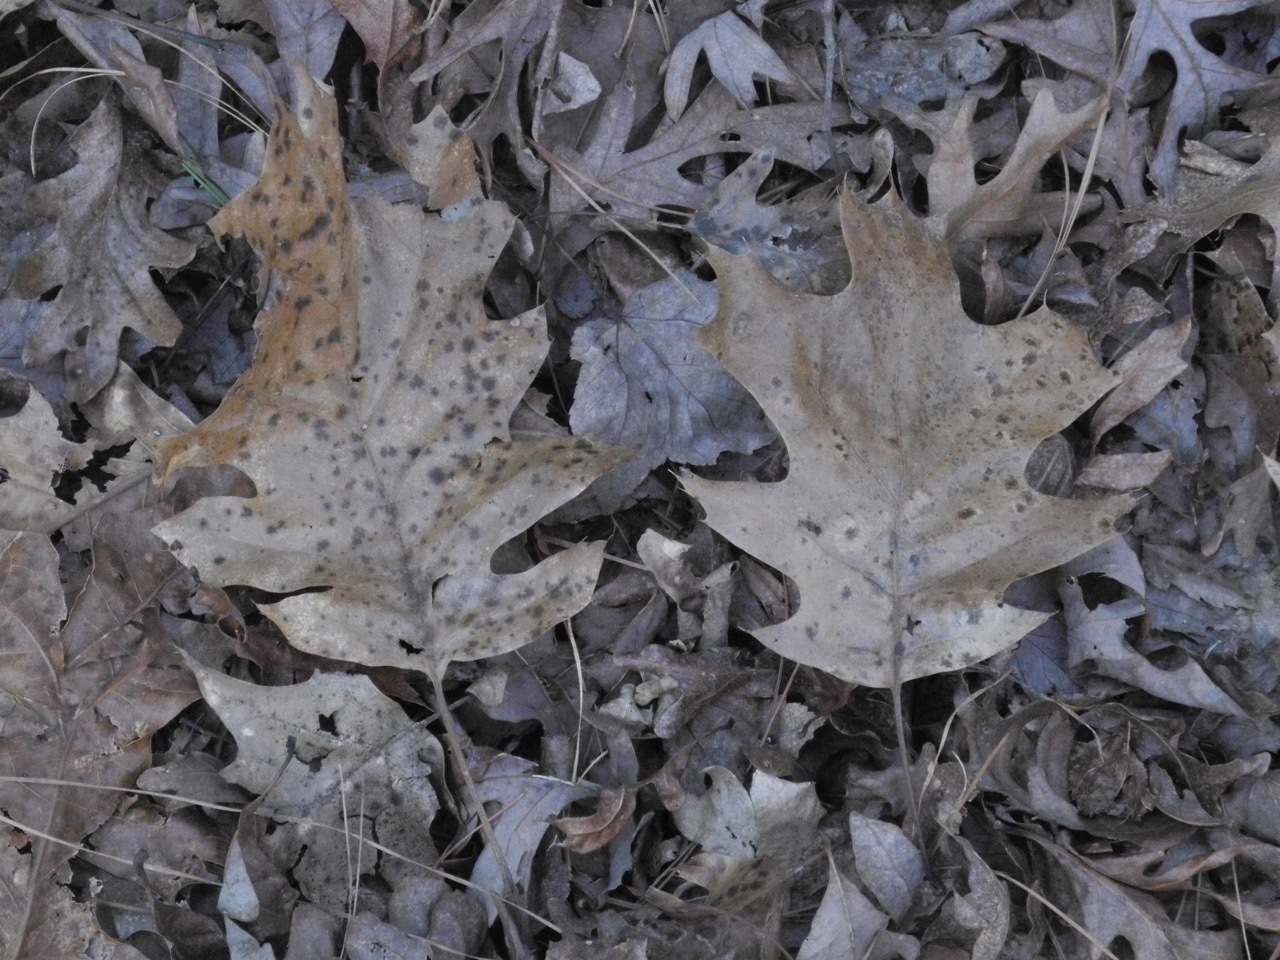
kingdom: Plantae
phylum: Tracheophyta
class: Magnoliopsida
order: Fagales
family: Fagaceae
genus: Quercus
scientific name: Quercus rubra
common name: Red oak
